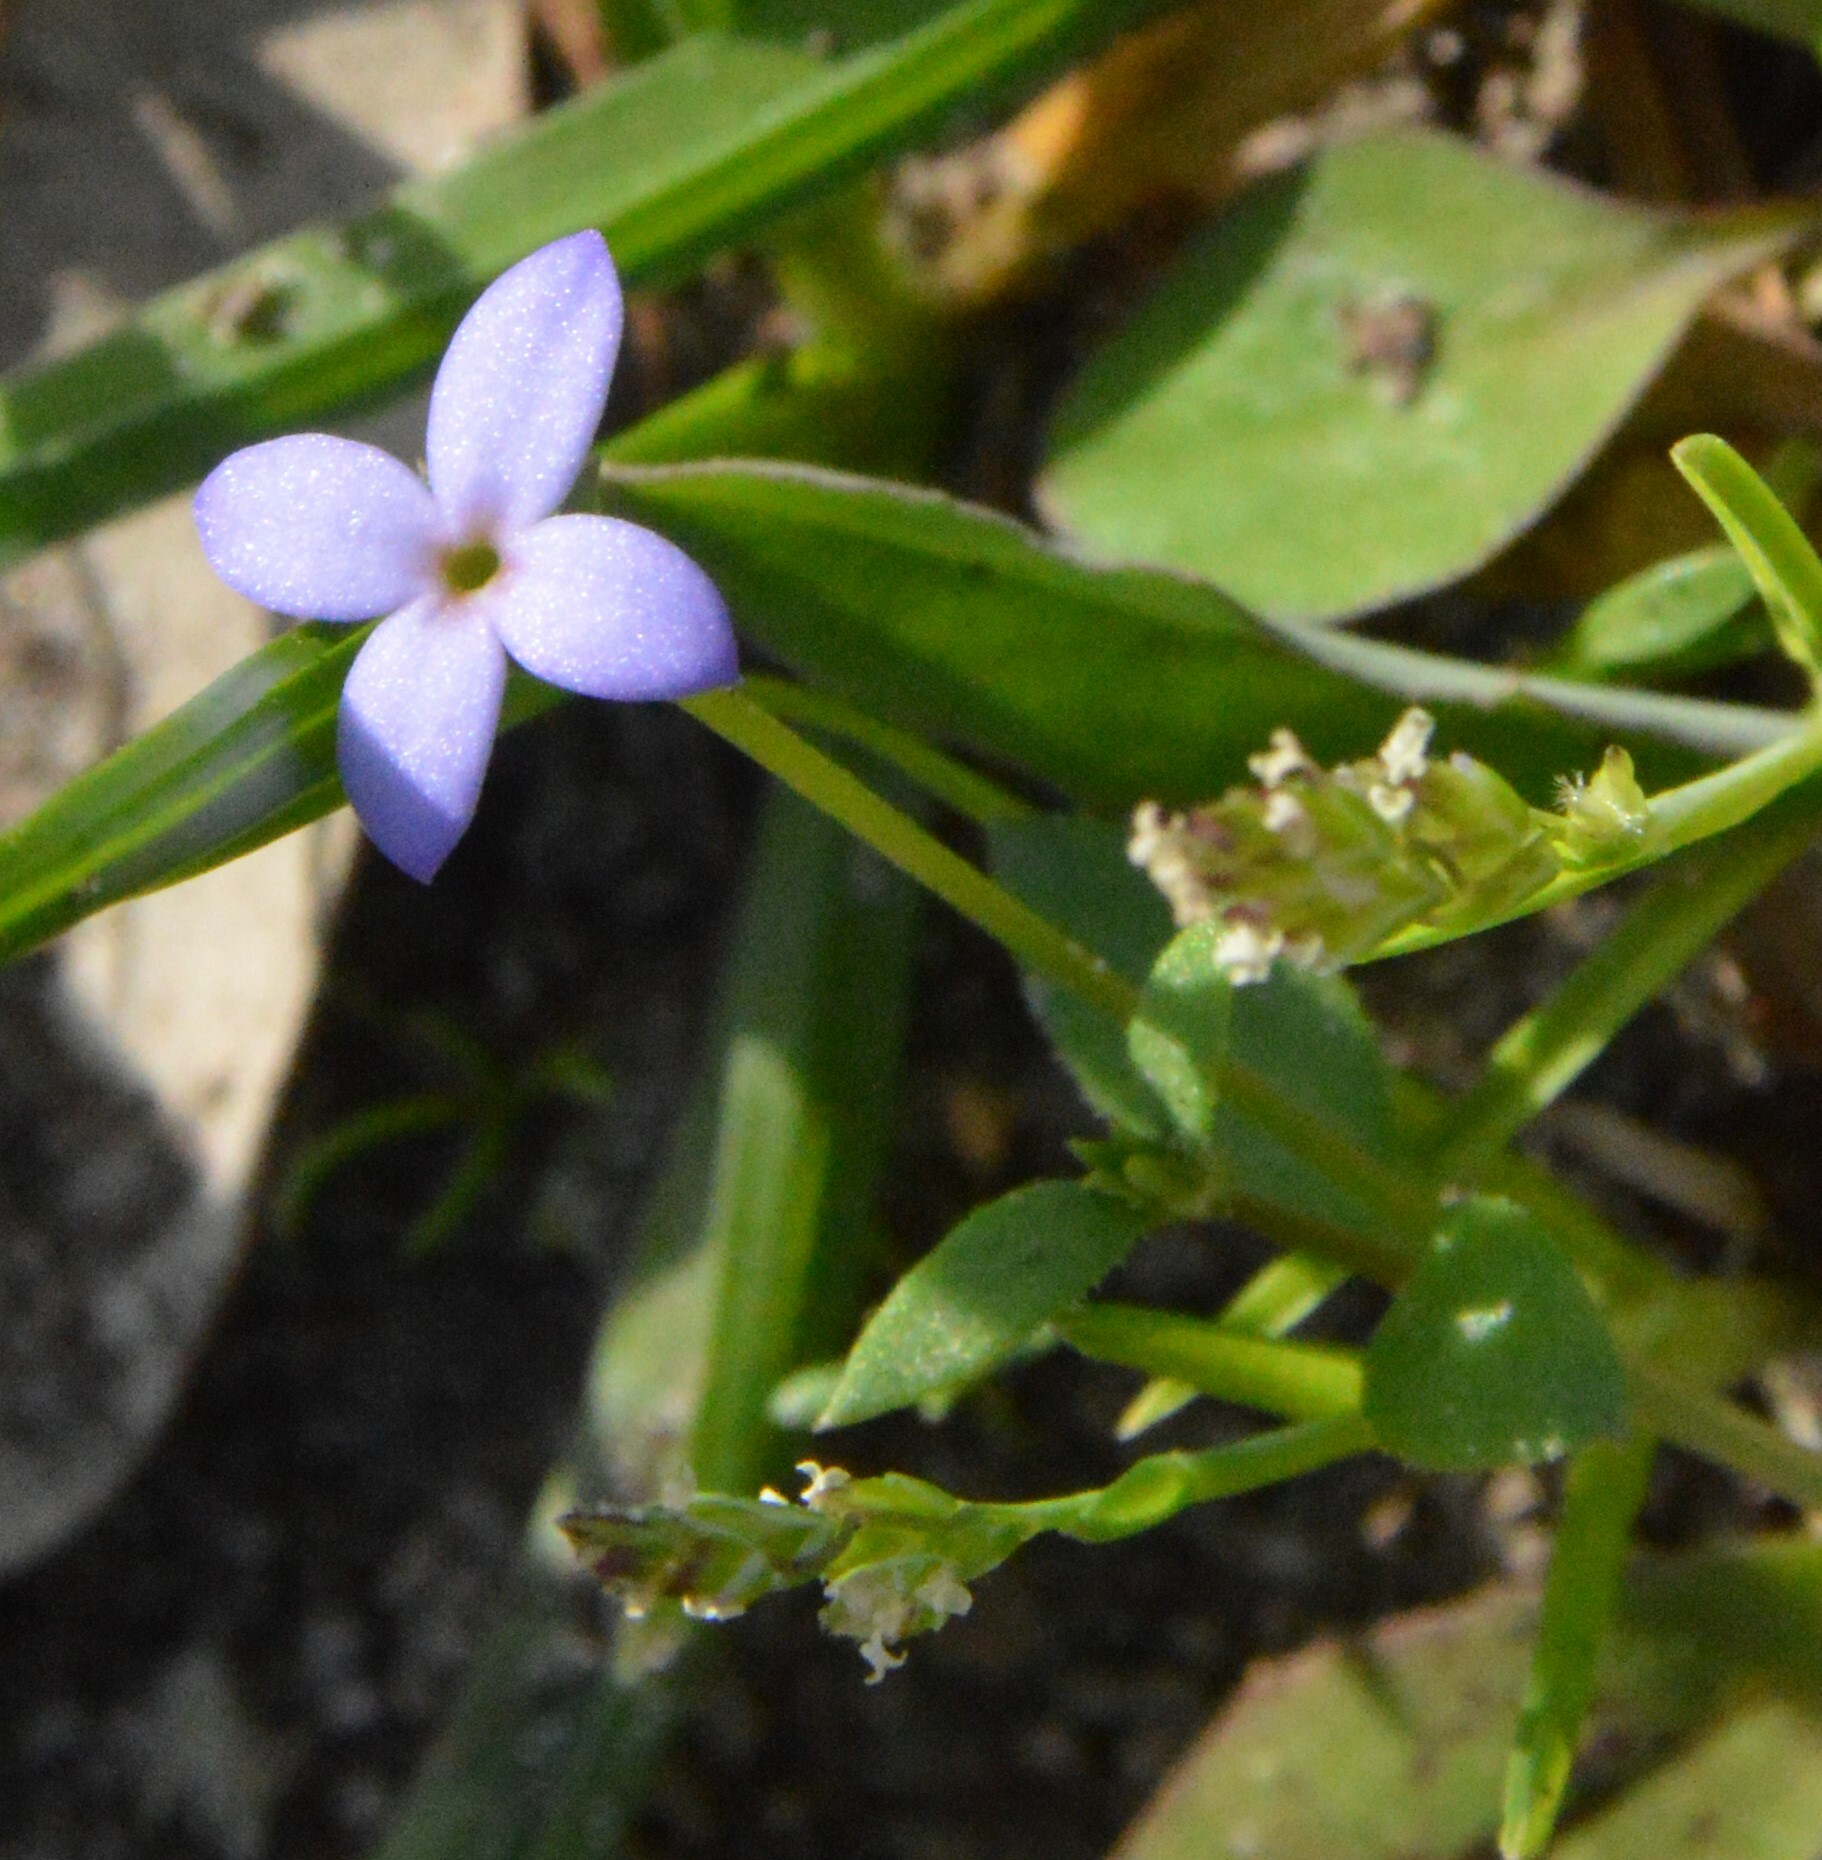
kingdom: Plantae
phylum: Tracheophyta
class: Magnoliopsida
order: Gentianales
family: Rubiaceae
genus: Houstonia
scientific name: Houstonia pusilla
